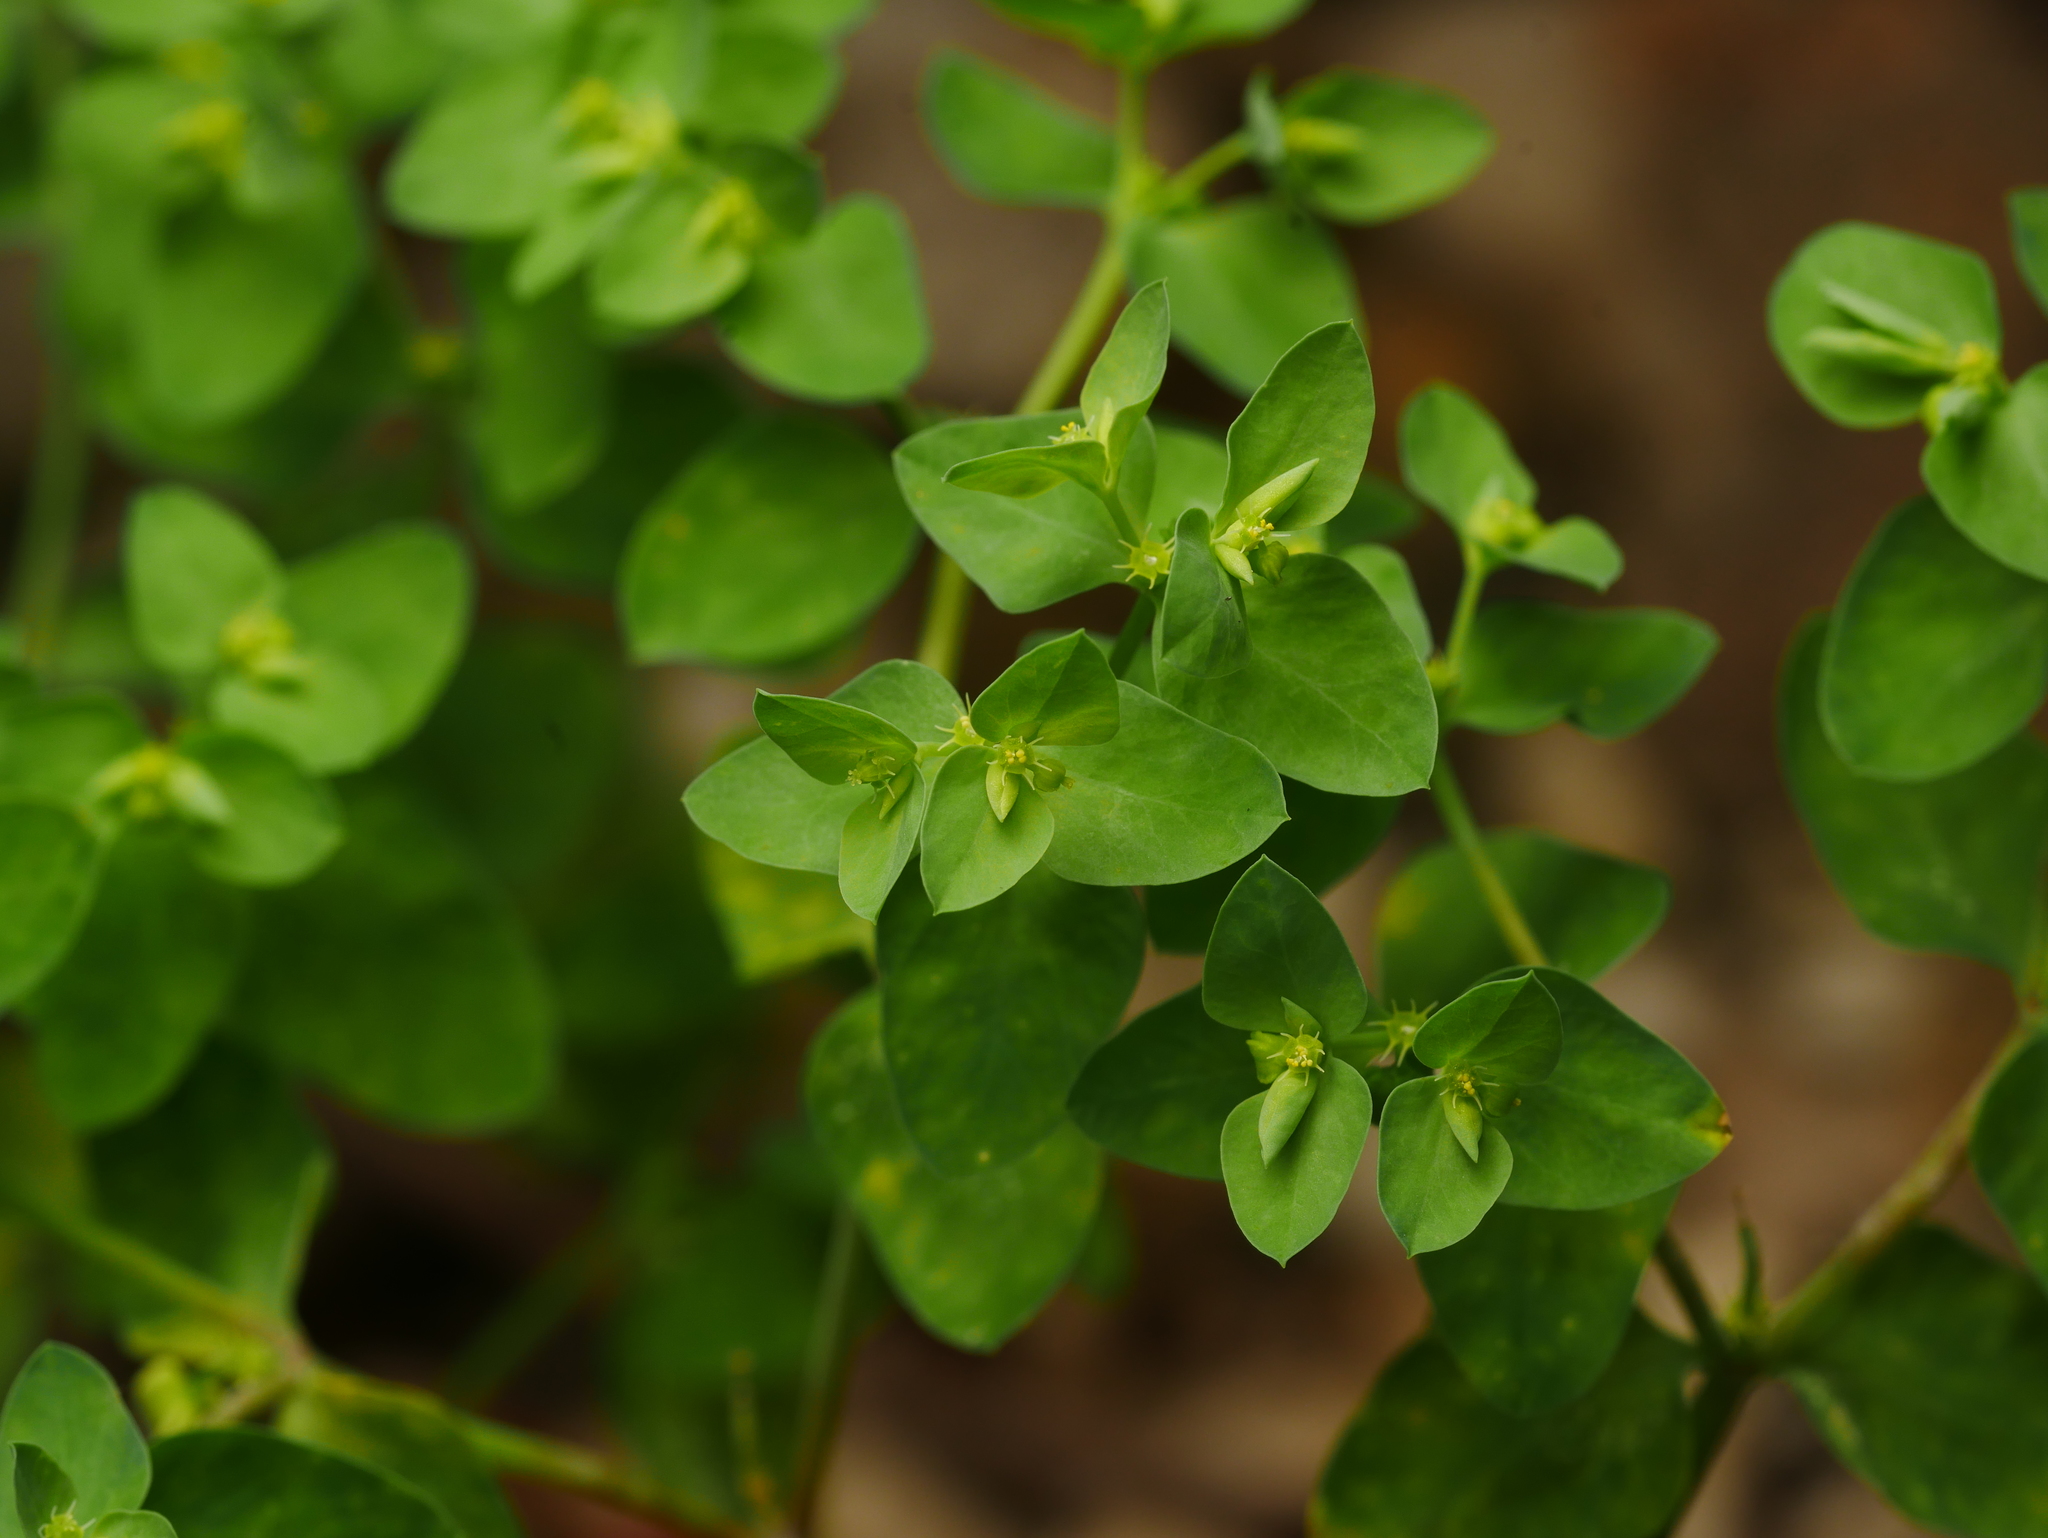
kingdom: Plantae
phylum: Tracheophyta
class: Magnoliopsida
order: Malpighiales
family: Euphorbiaceae
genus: Euphorbia
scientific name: Euphorbia peplus
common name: Petty spurge
